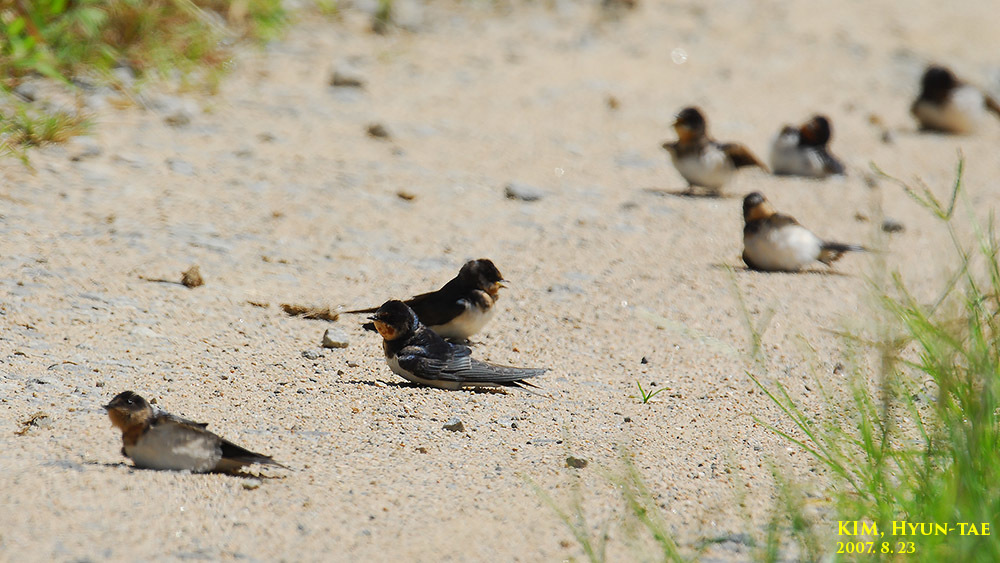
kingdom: Animalia
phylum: Chordata
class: Aves
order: Passeriformes
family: Hirundinidae
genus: Hirundo
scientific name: Hirundo rustica
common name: Barn swallow
